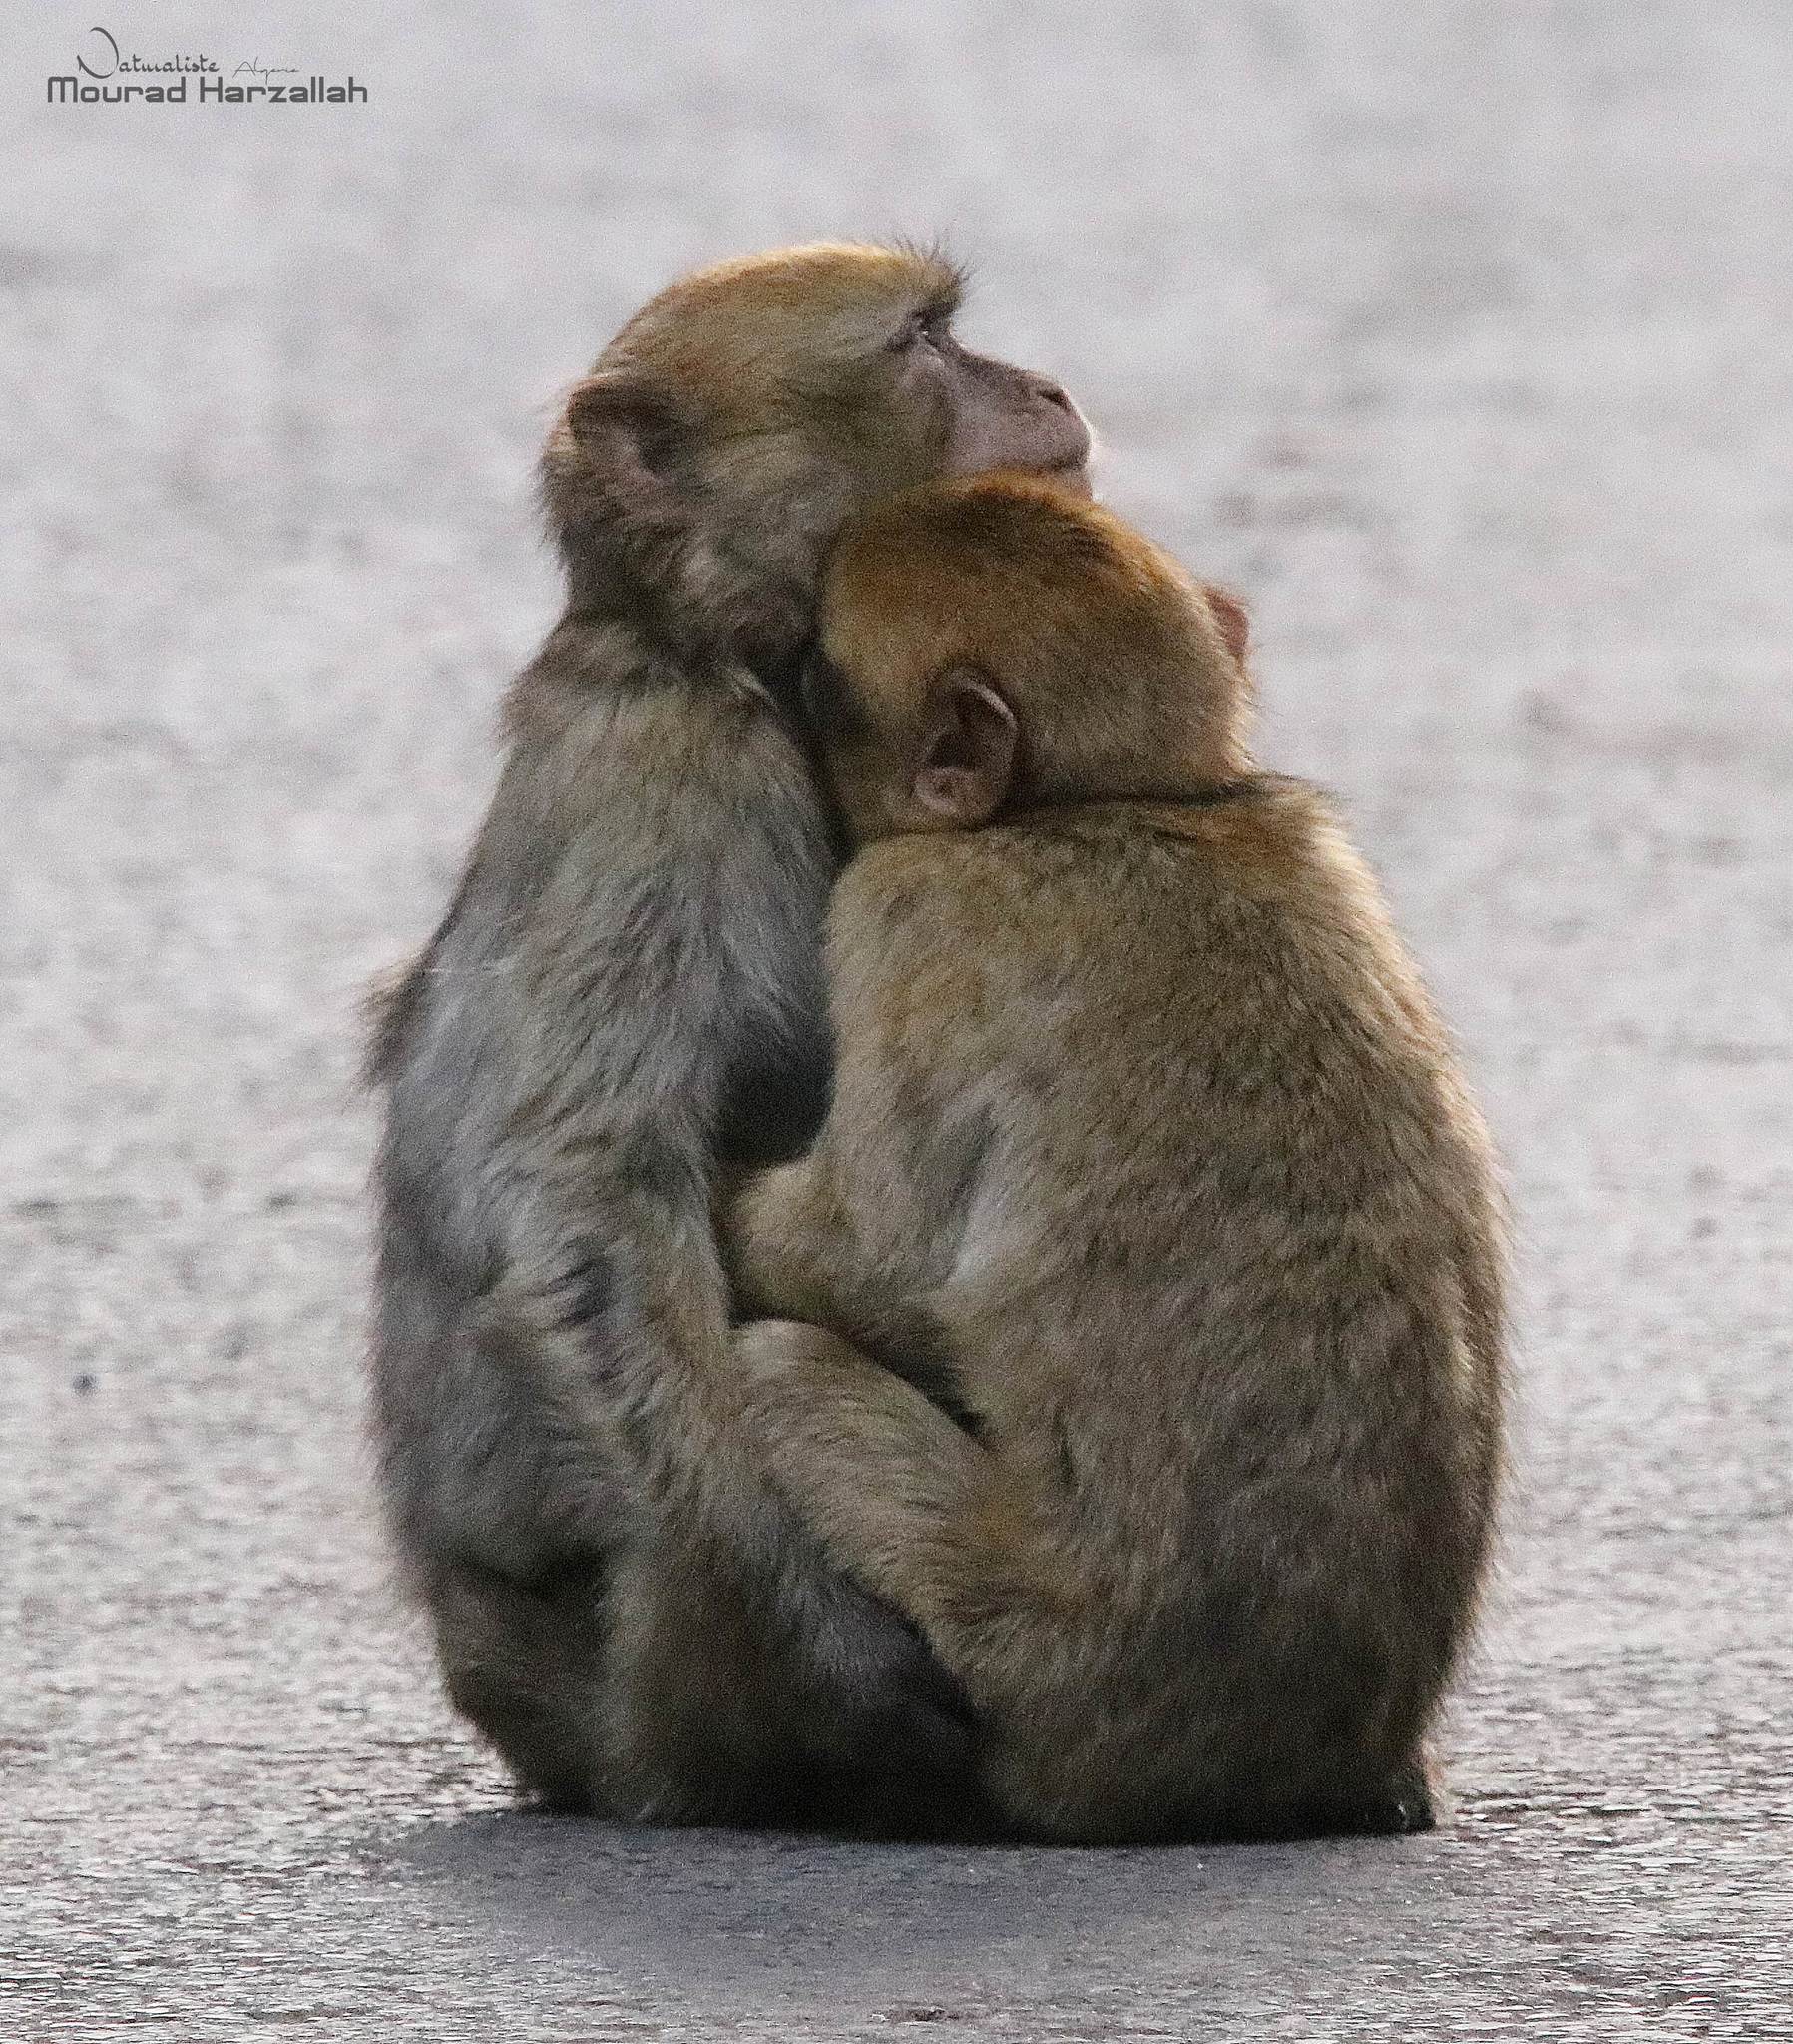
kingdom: Animalia
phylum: Chordata
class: Mammalia
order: Primates
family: Cercopithecidae
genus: Macaca
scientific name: Macaca sylvanus
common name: Barbary macaque
